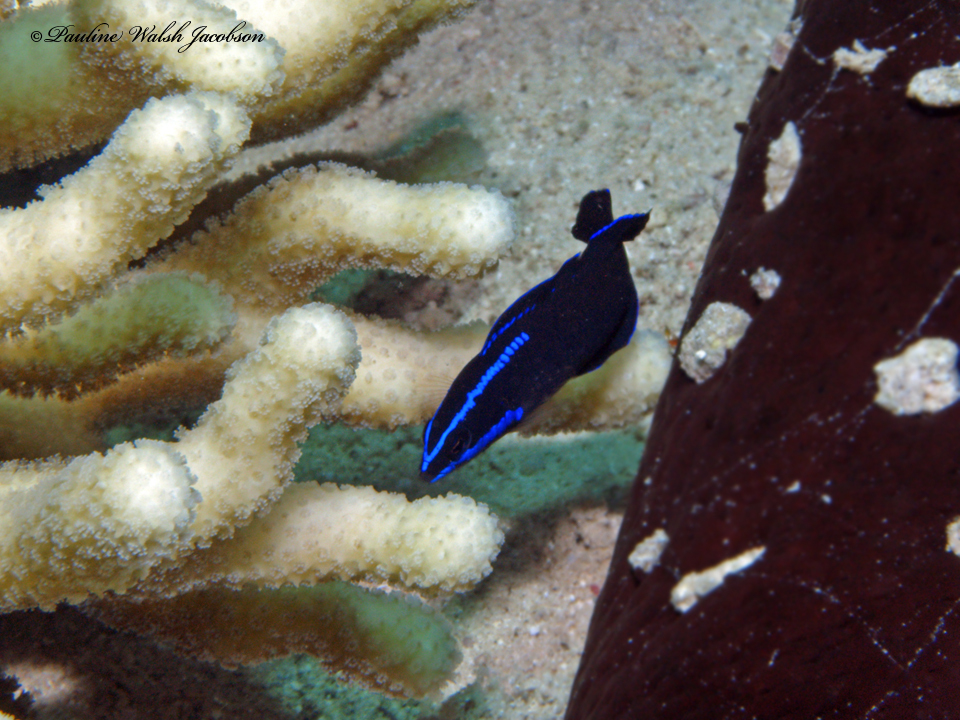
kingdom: Animalia
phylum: Chordata
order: Perciformes
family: Pseudochromidae
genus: Pseudochromis
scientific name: Pseudochromis springeri
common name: Blue-striped dottyback
